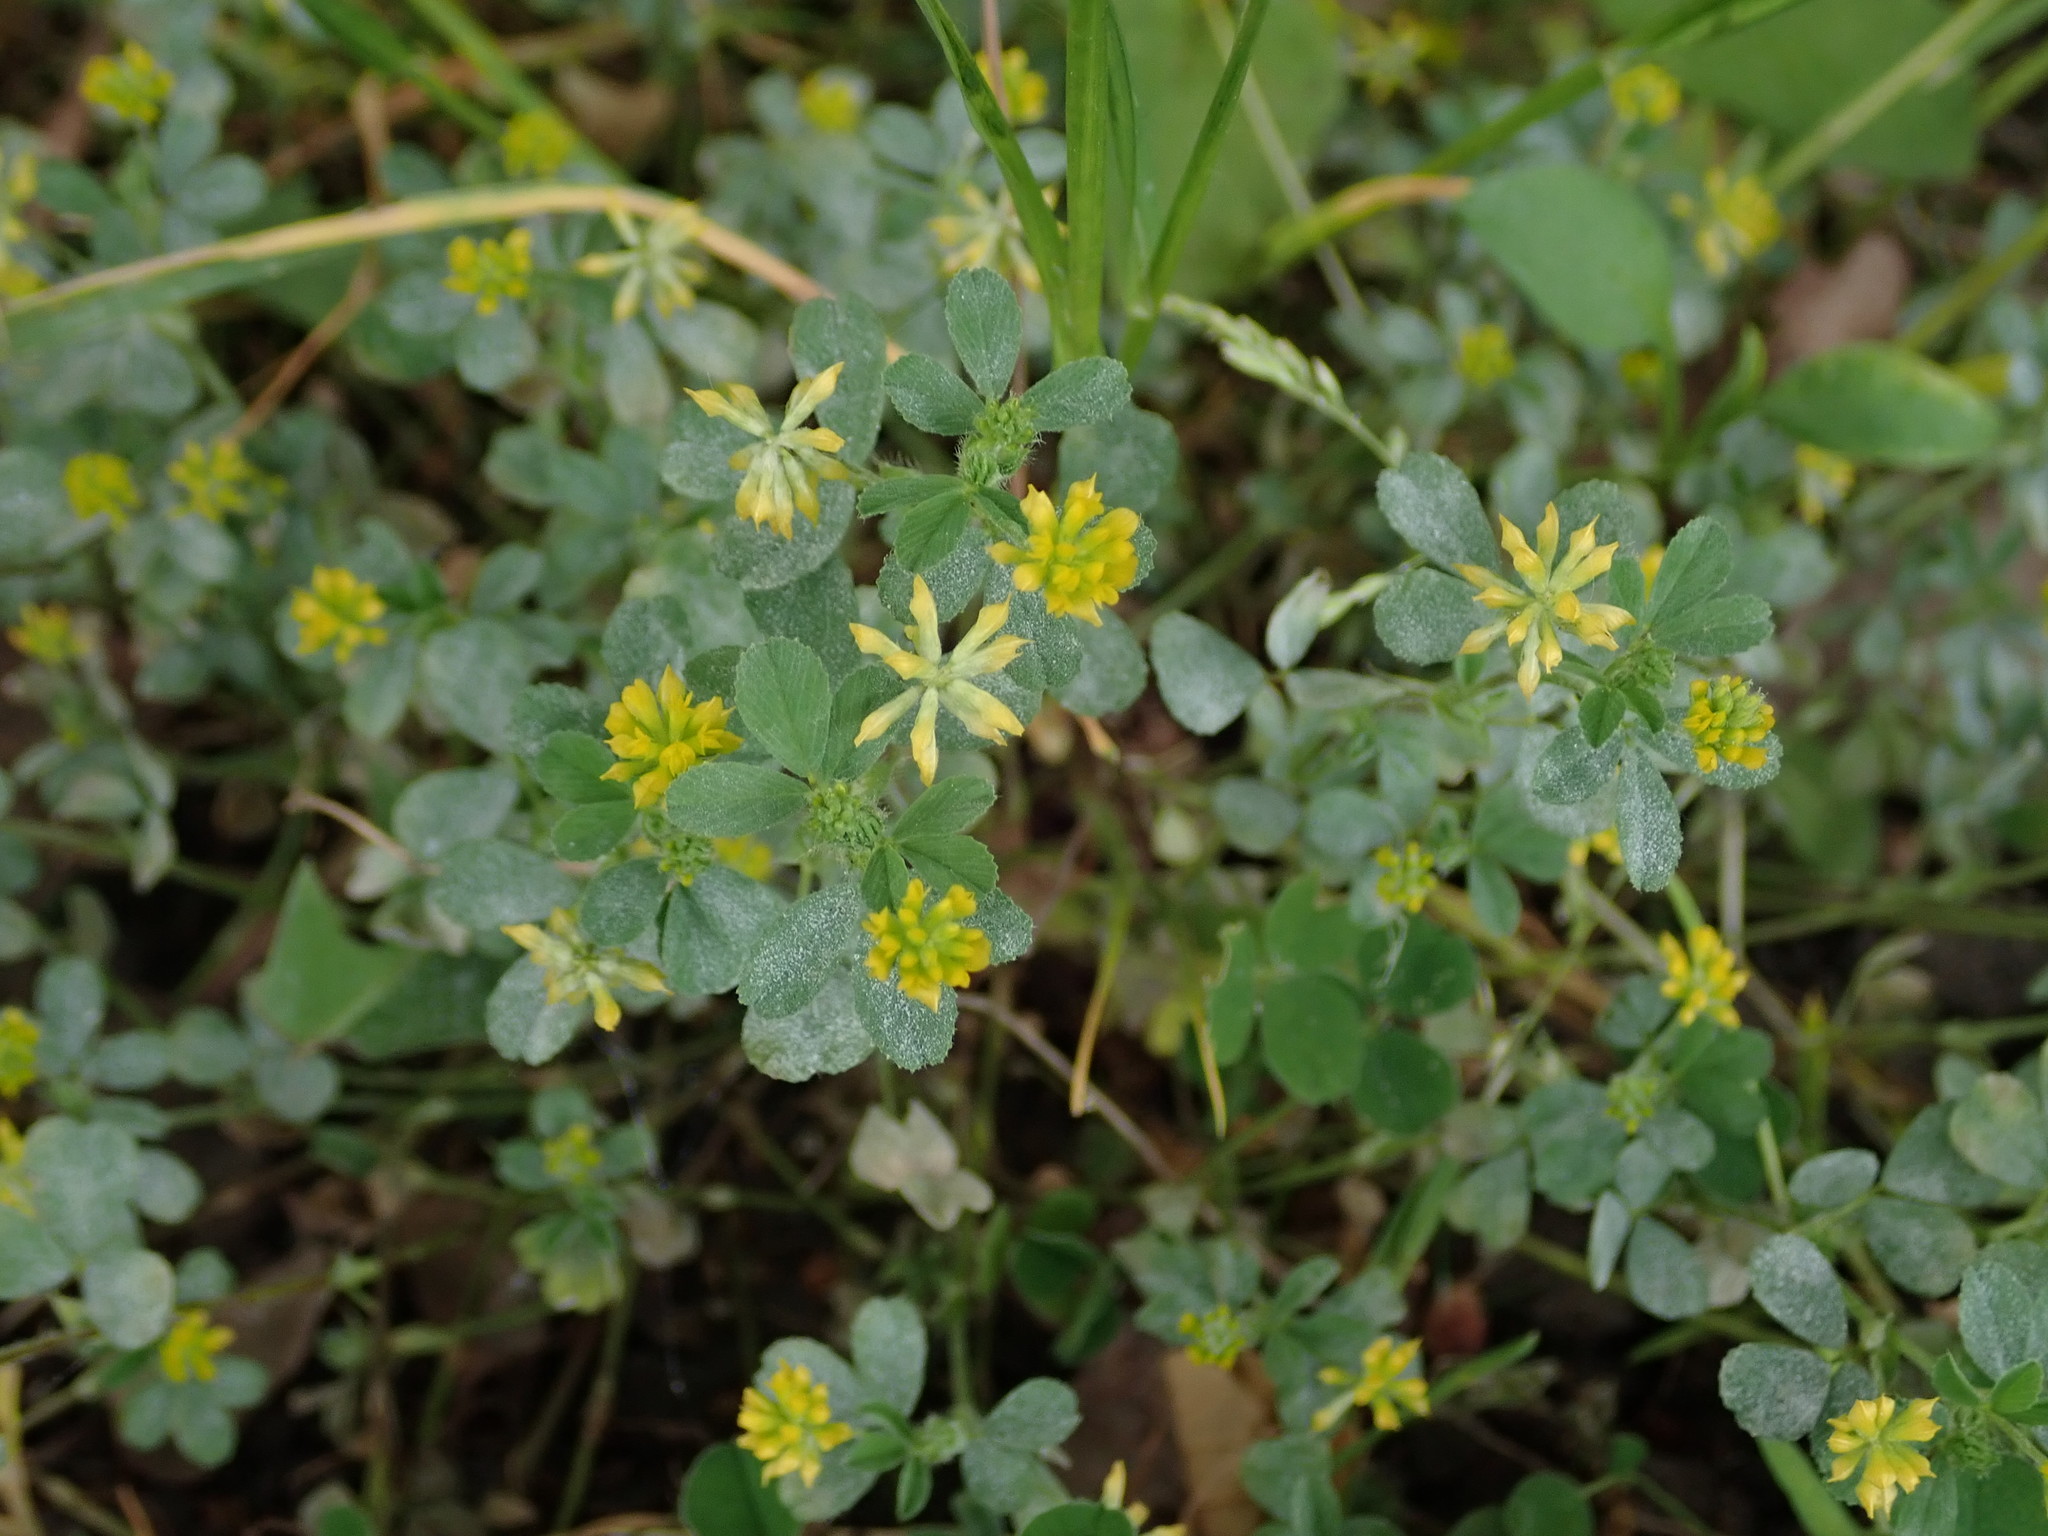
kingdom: Plantae
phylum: Tracheophyta
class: Magnoliopsida
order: Fabales
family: Fabaceae
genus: Trifolium
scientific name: Trifolium dubium
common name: Suckling clover
